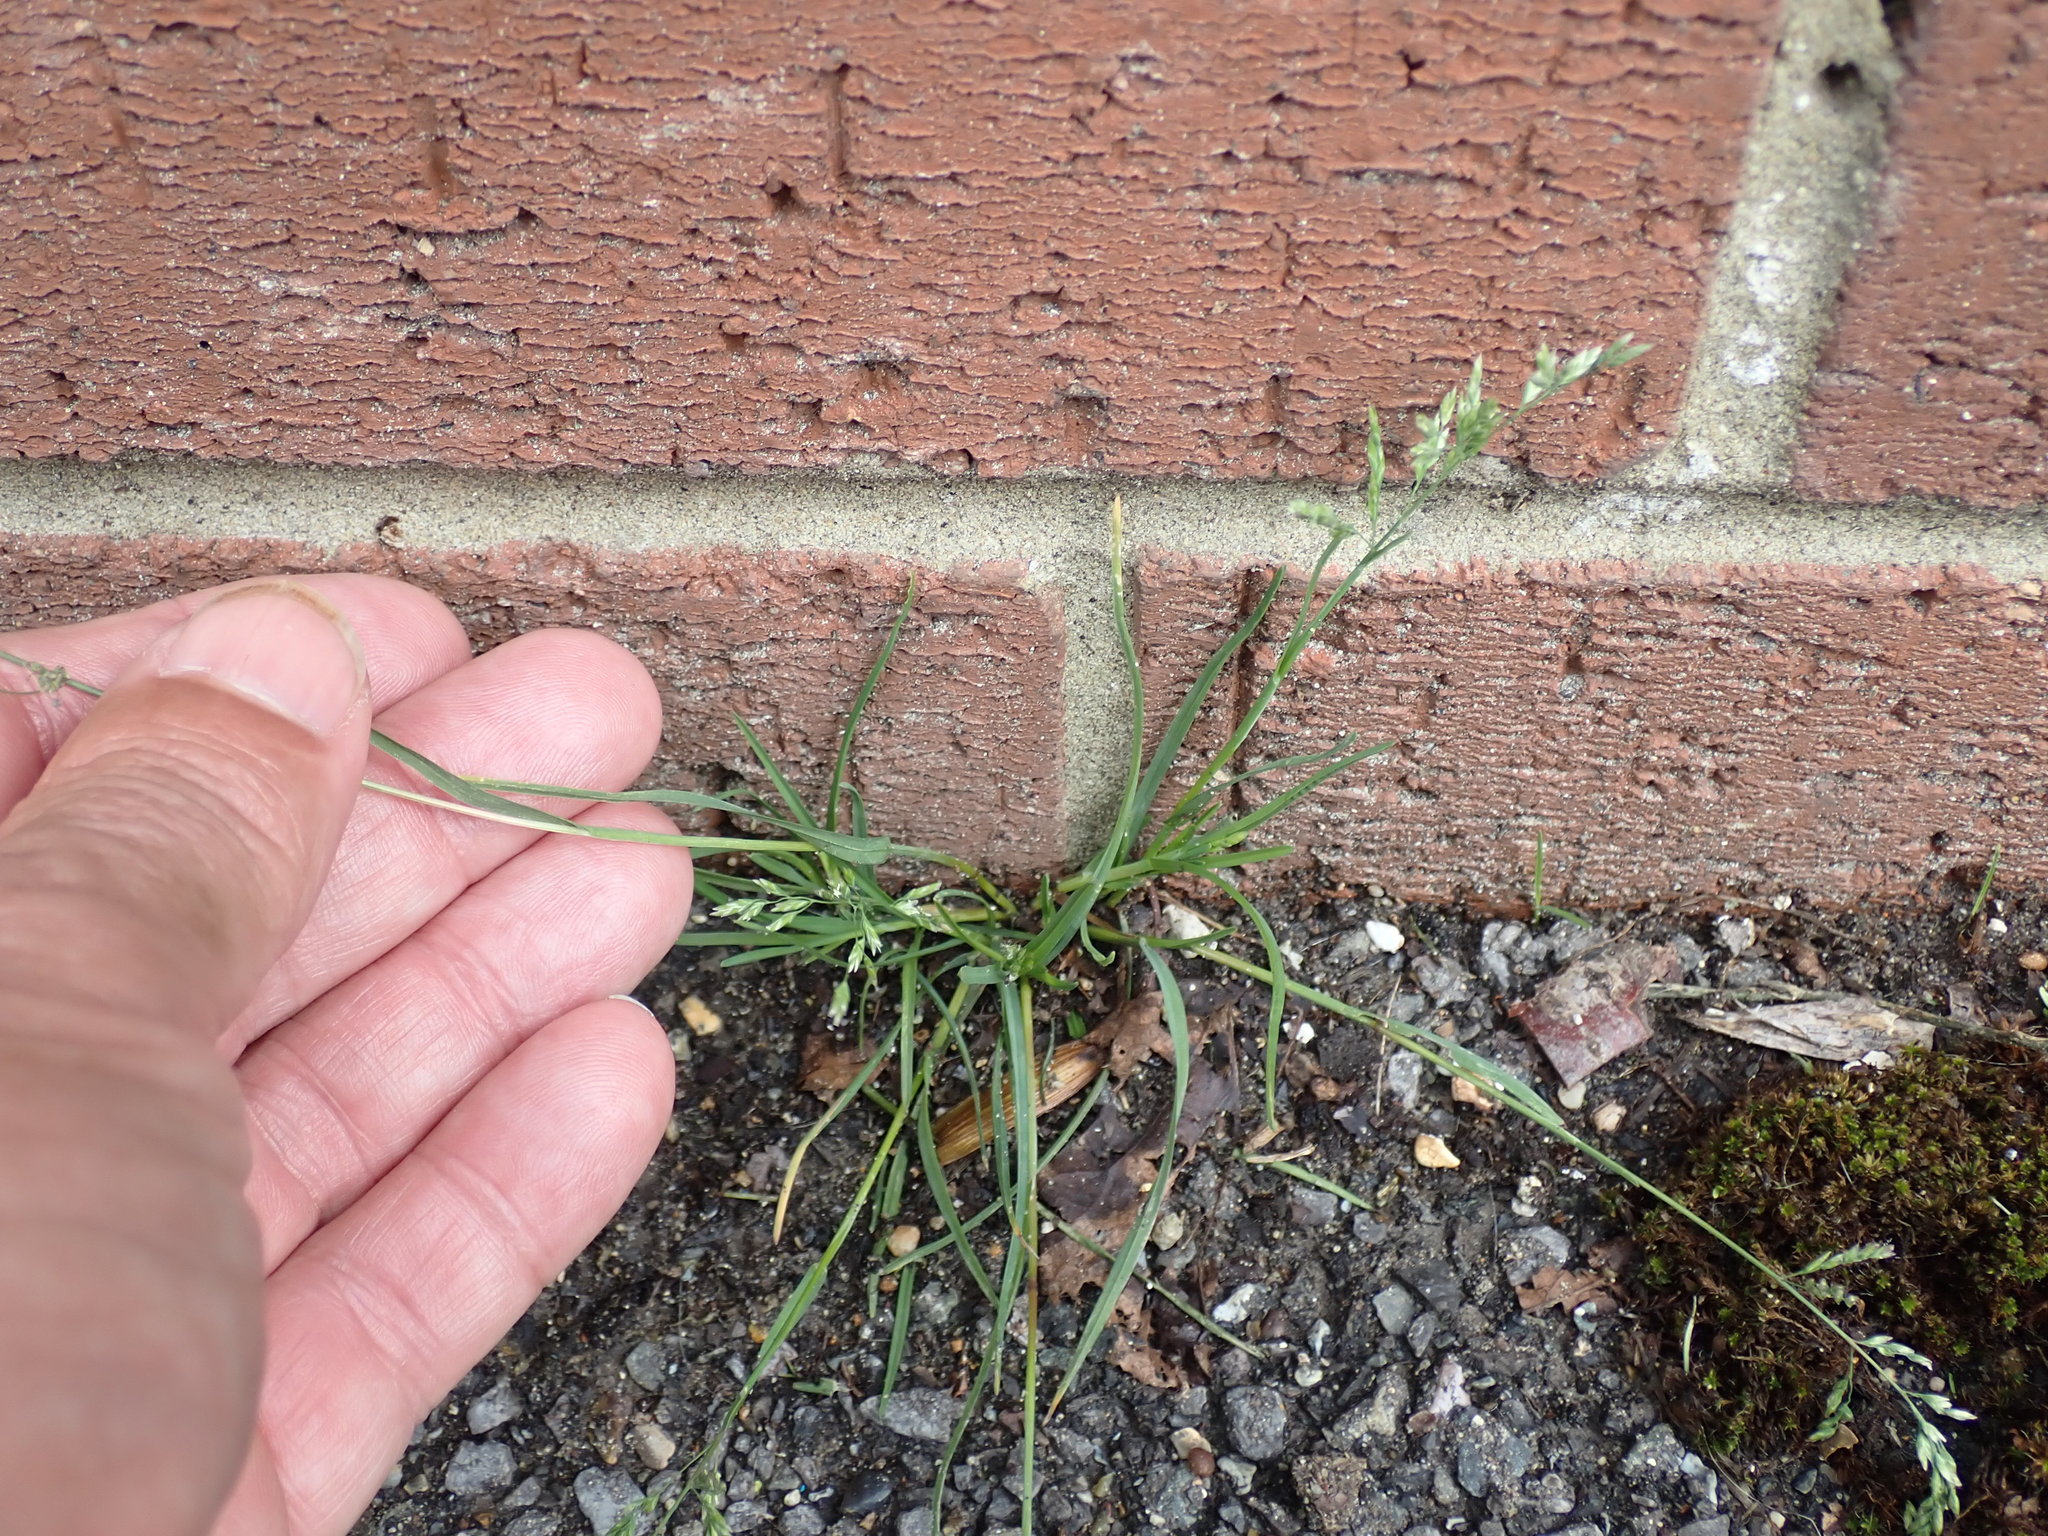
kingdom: Plantae
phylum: Tracheophyta
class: Liliopsida
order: Poales
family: Poaceae
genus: Poa
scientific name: Poa annua
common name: Annual bluegrass
